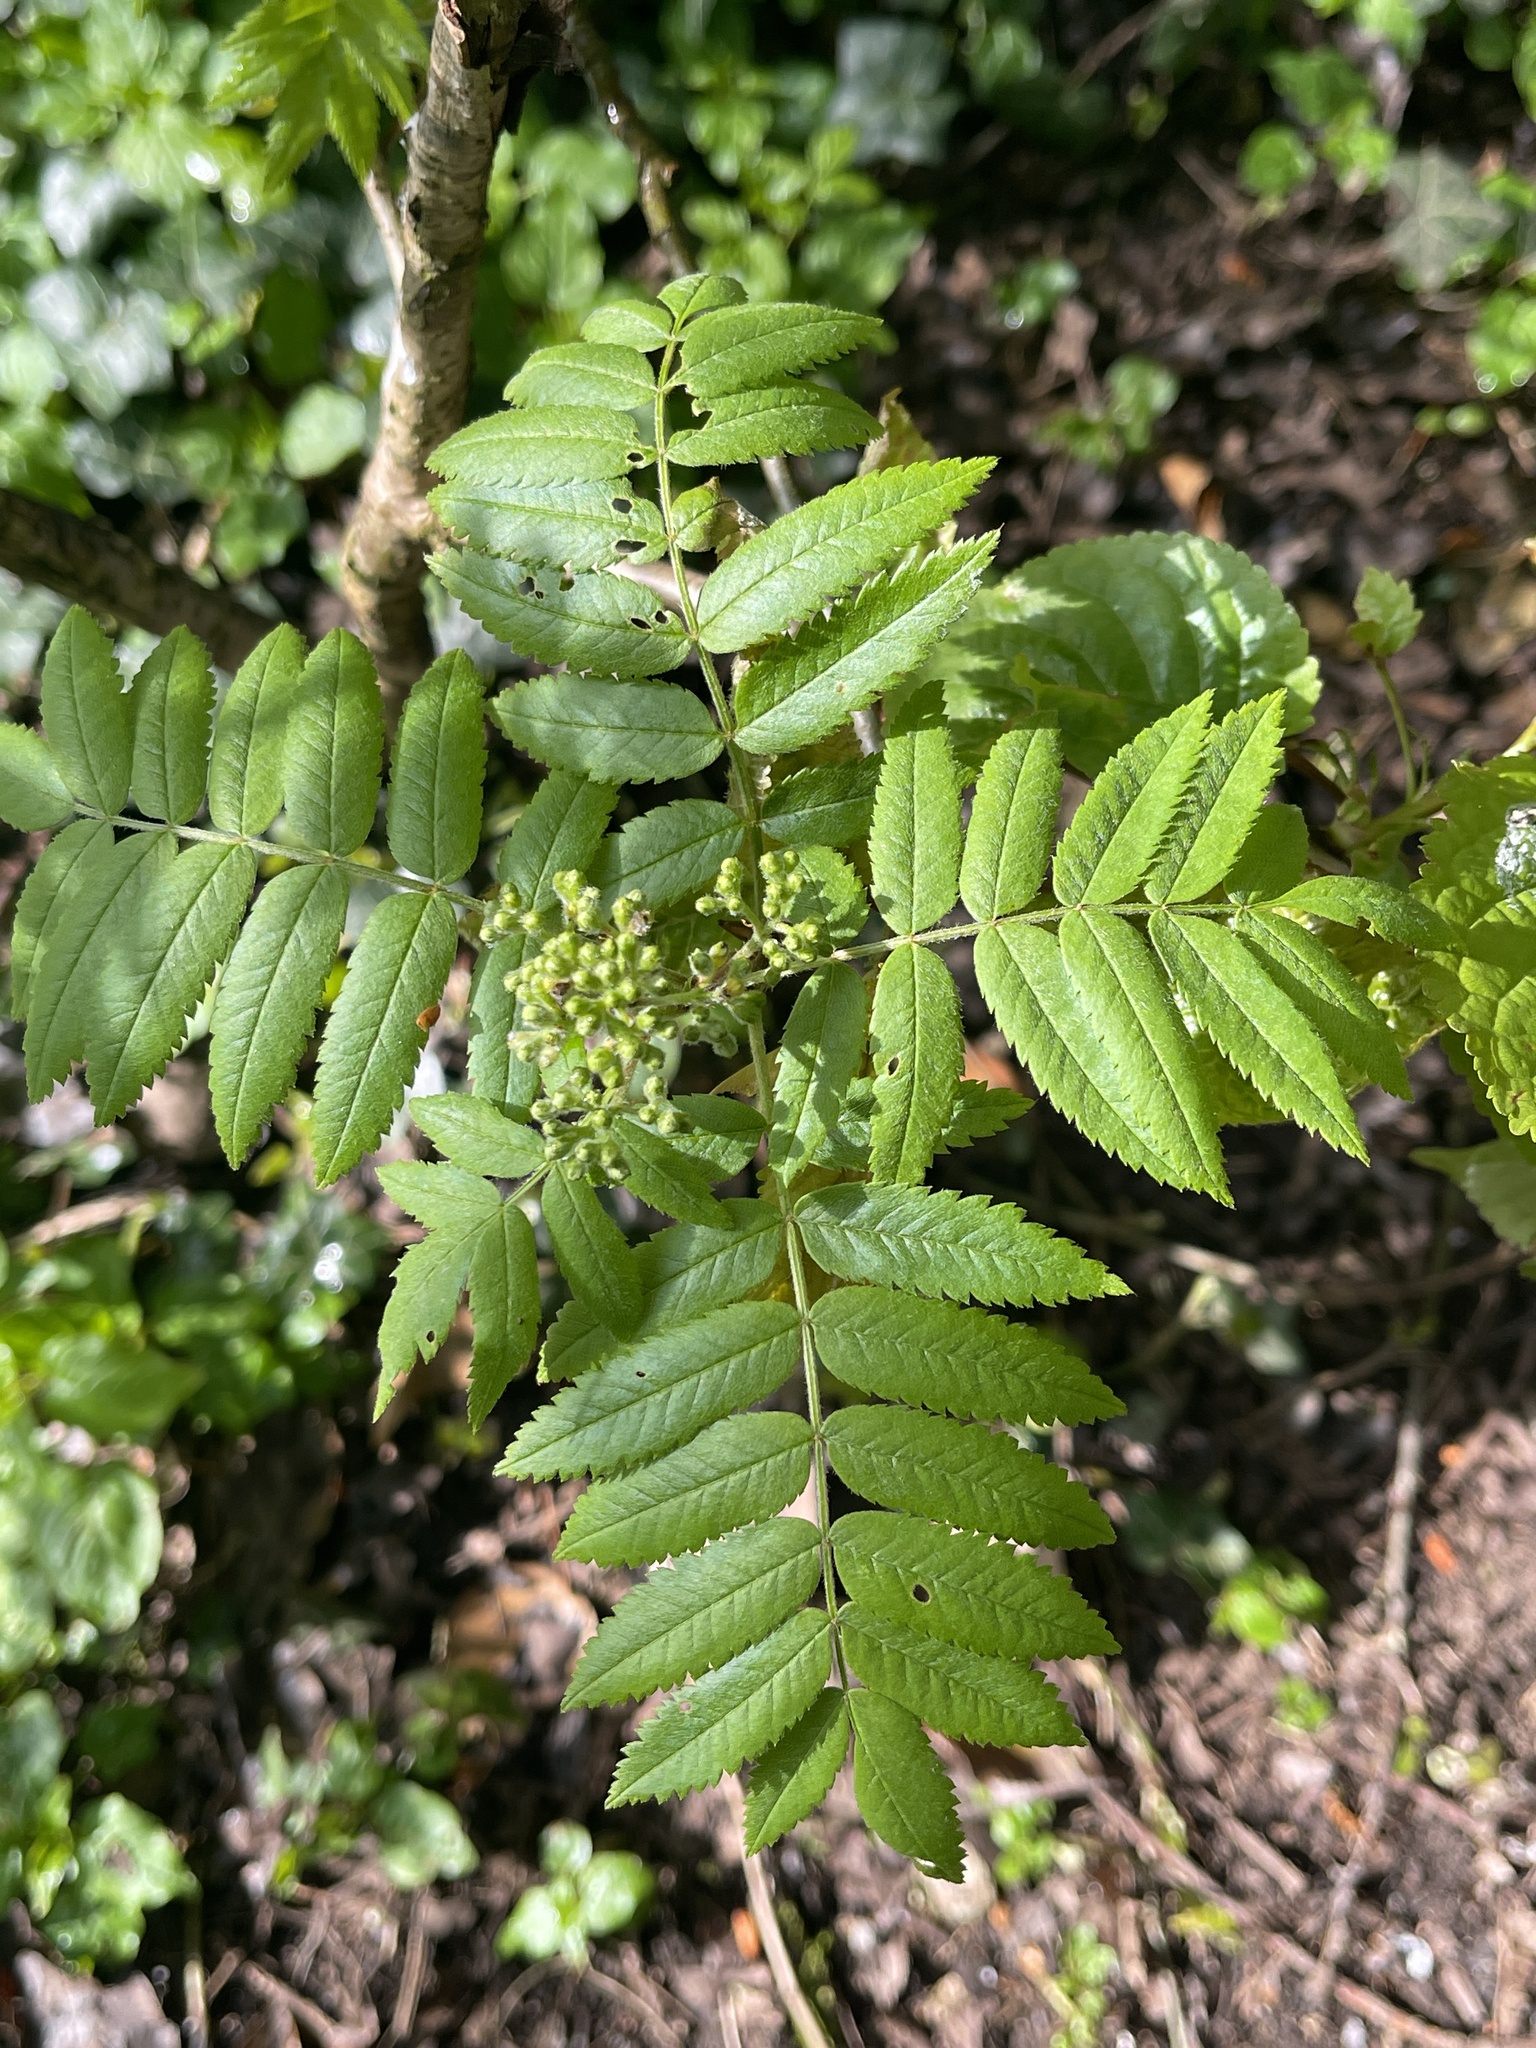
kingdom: Plantae
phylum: Tracheophyta
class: Magnoliopsida
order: Rosales
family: Rosaceae
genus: Sorbus
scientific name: Sorbus aucuparia
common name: Rowan
